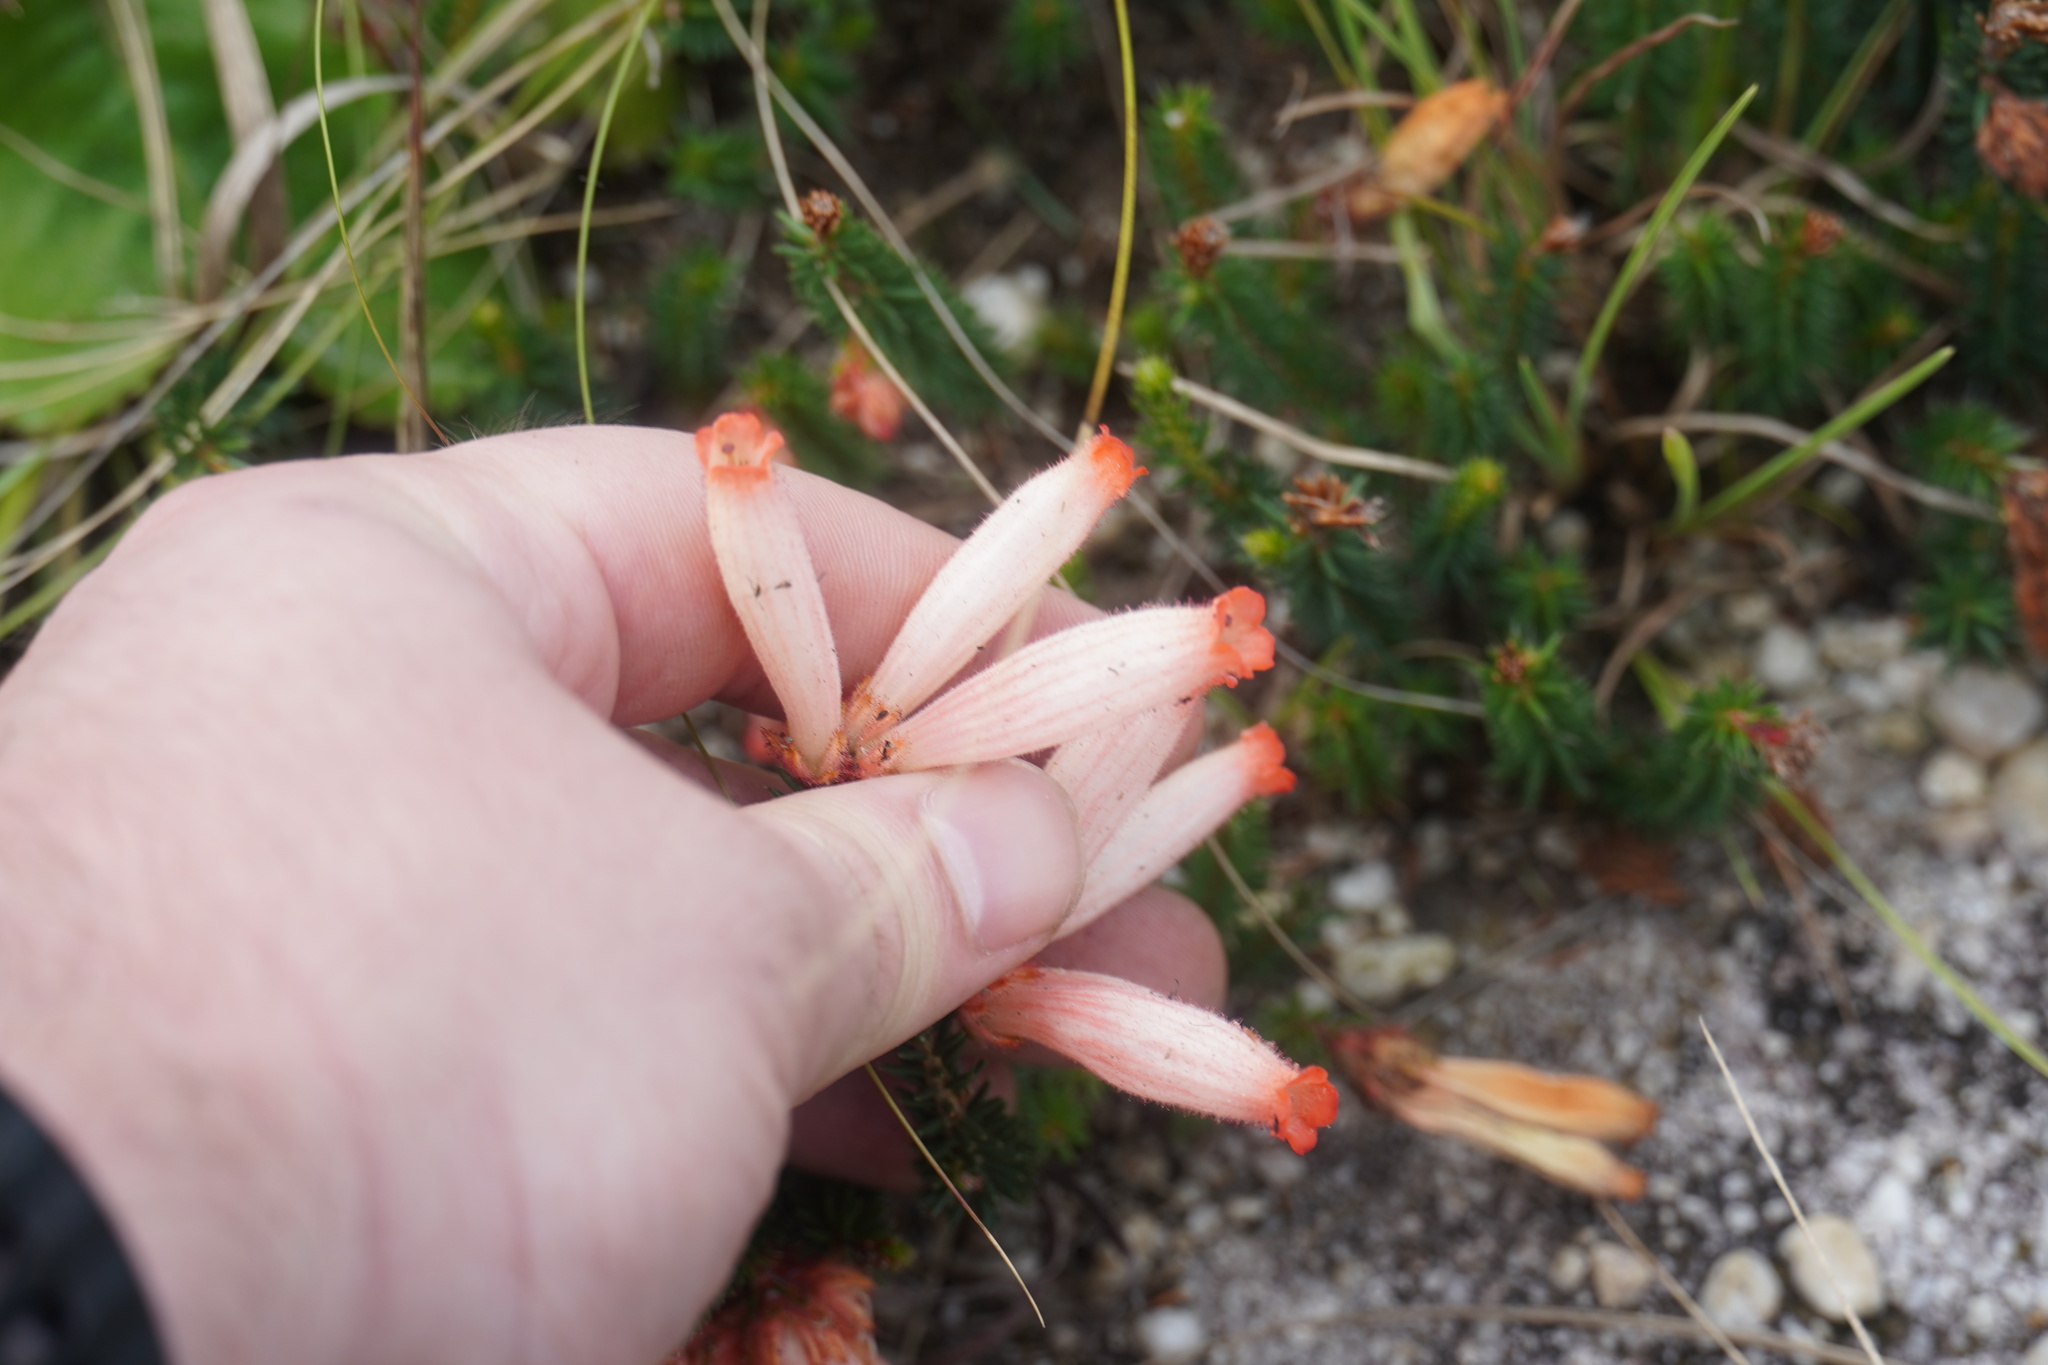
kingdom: Plantae
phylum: Tracheophyta
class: Magnoliopsida
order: Ericales
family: Ericaceae
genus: Erica
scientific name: Erica cerinthoides
